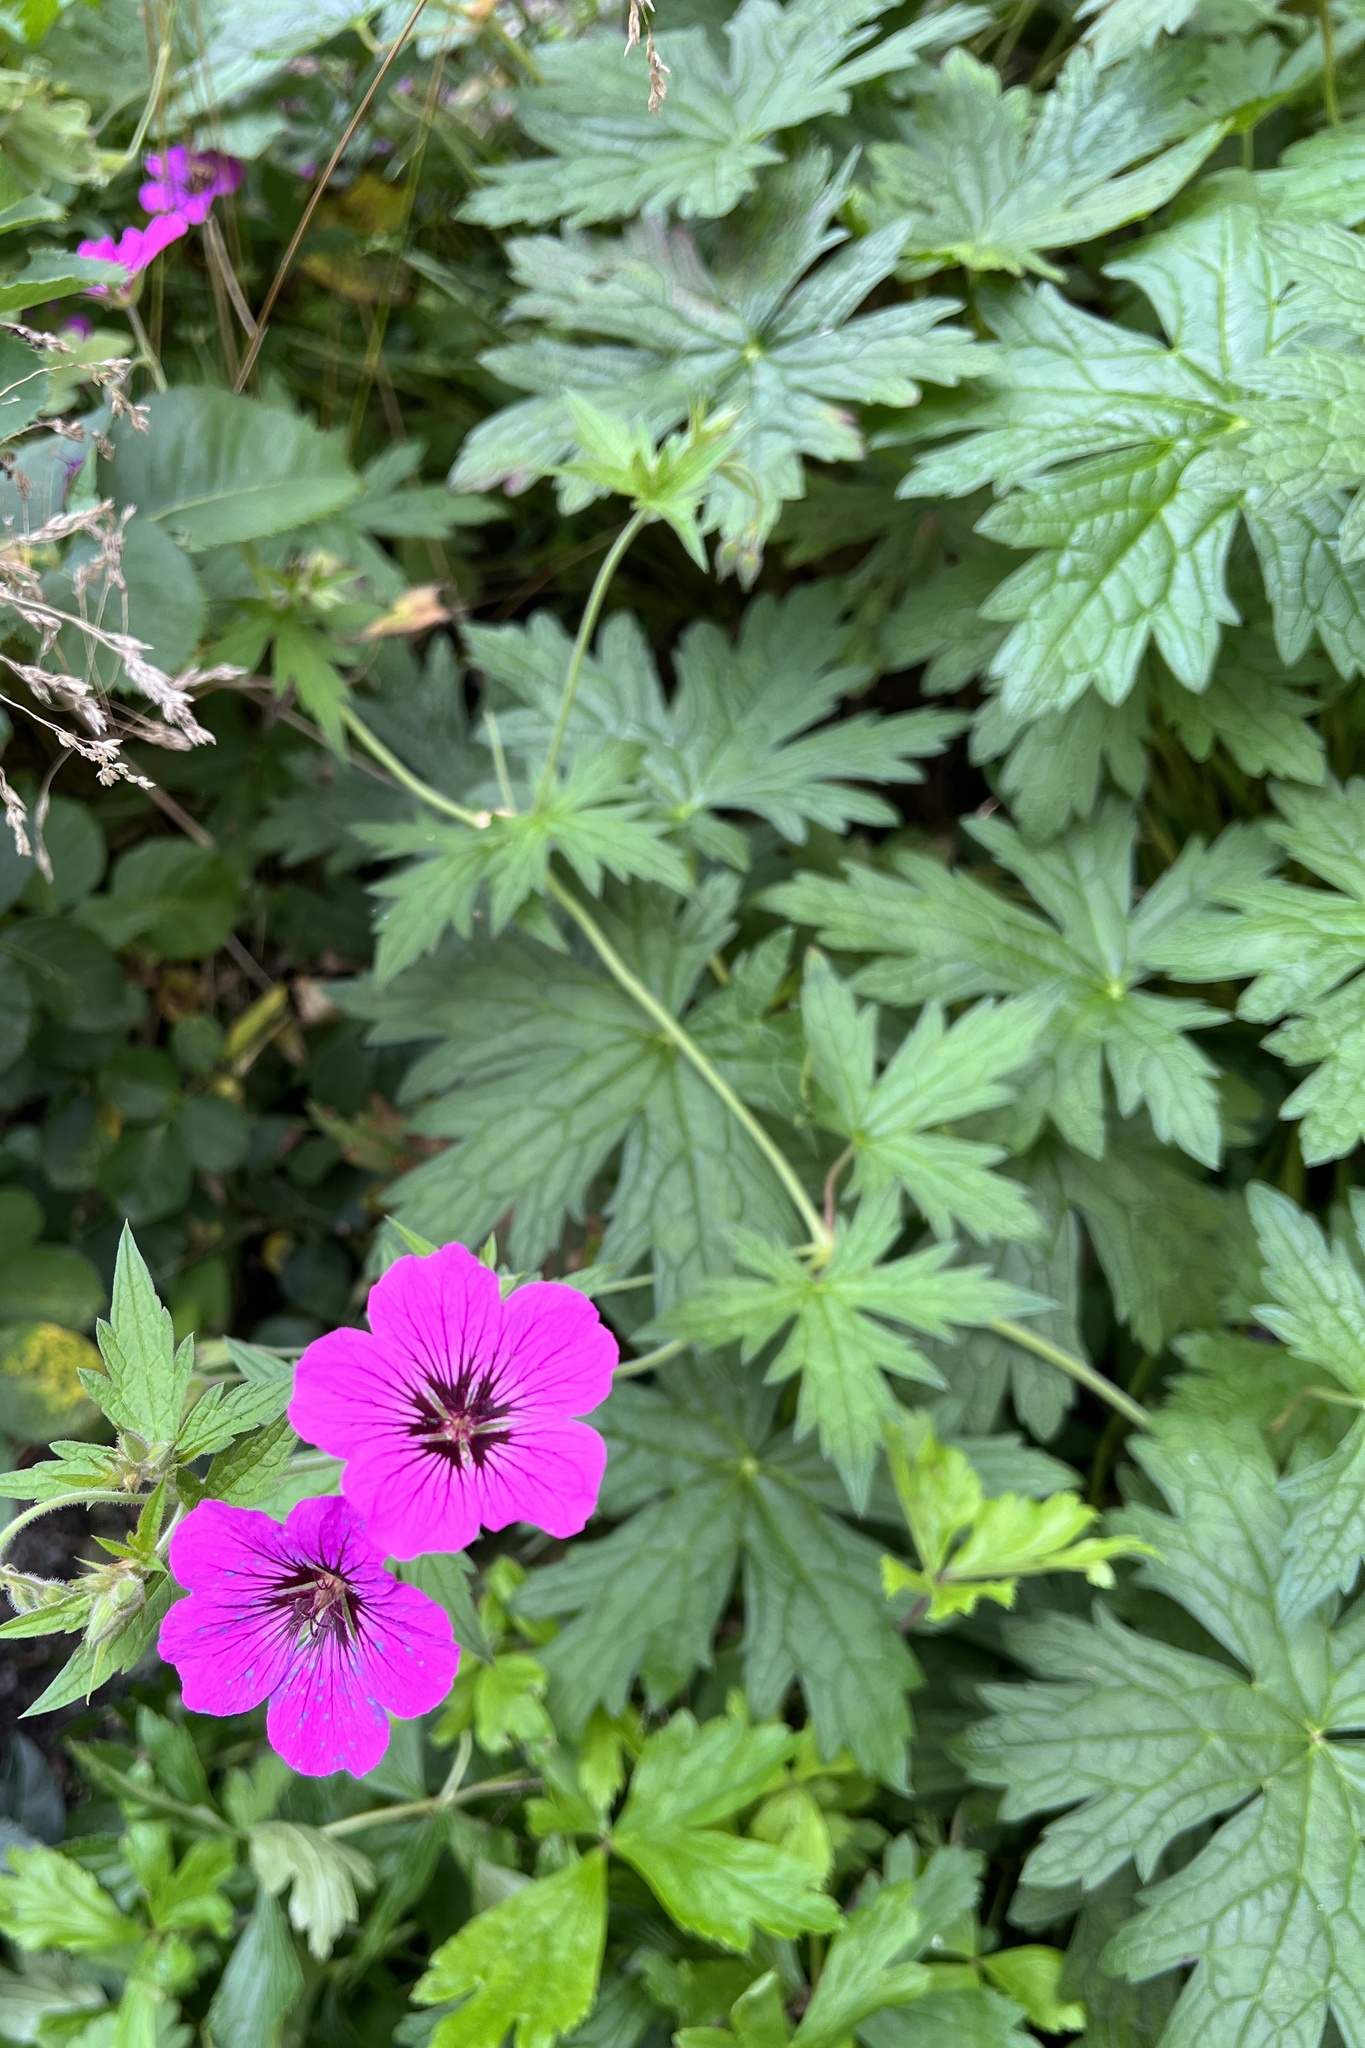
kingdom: Plantae
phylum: Tracheophyta
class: Magnoliopsida
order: Geraniales
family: Geraniaceae
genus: Geranium
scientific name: Geranium psilostemon
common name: Armenian crane's-bill
